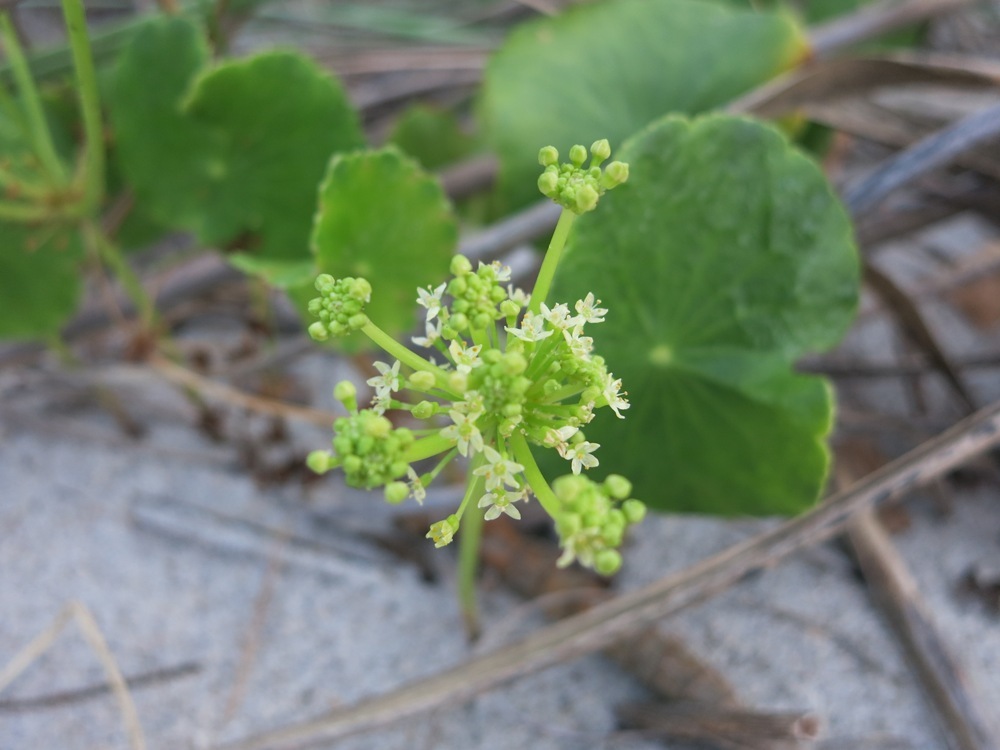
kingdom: Plantae
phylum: Tracheophyta
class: Magnoliopsida
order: Apiales
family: Araliaceae
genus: Hydrocotyle
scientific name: Hydrocotyle bonariensis
